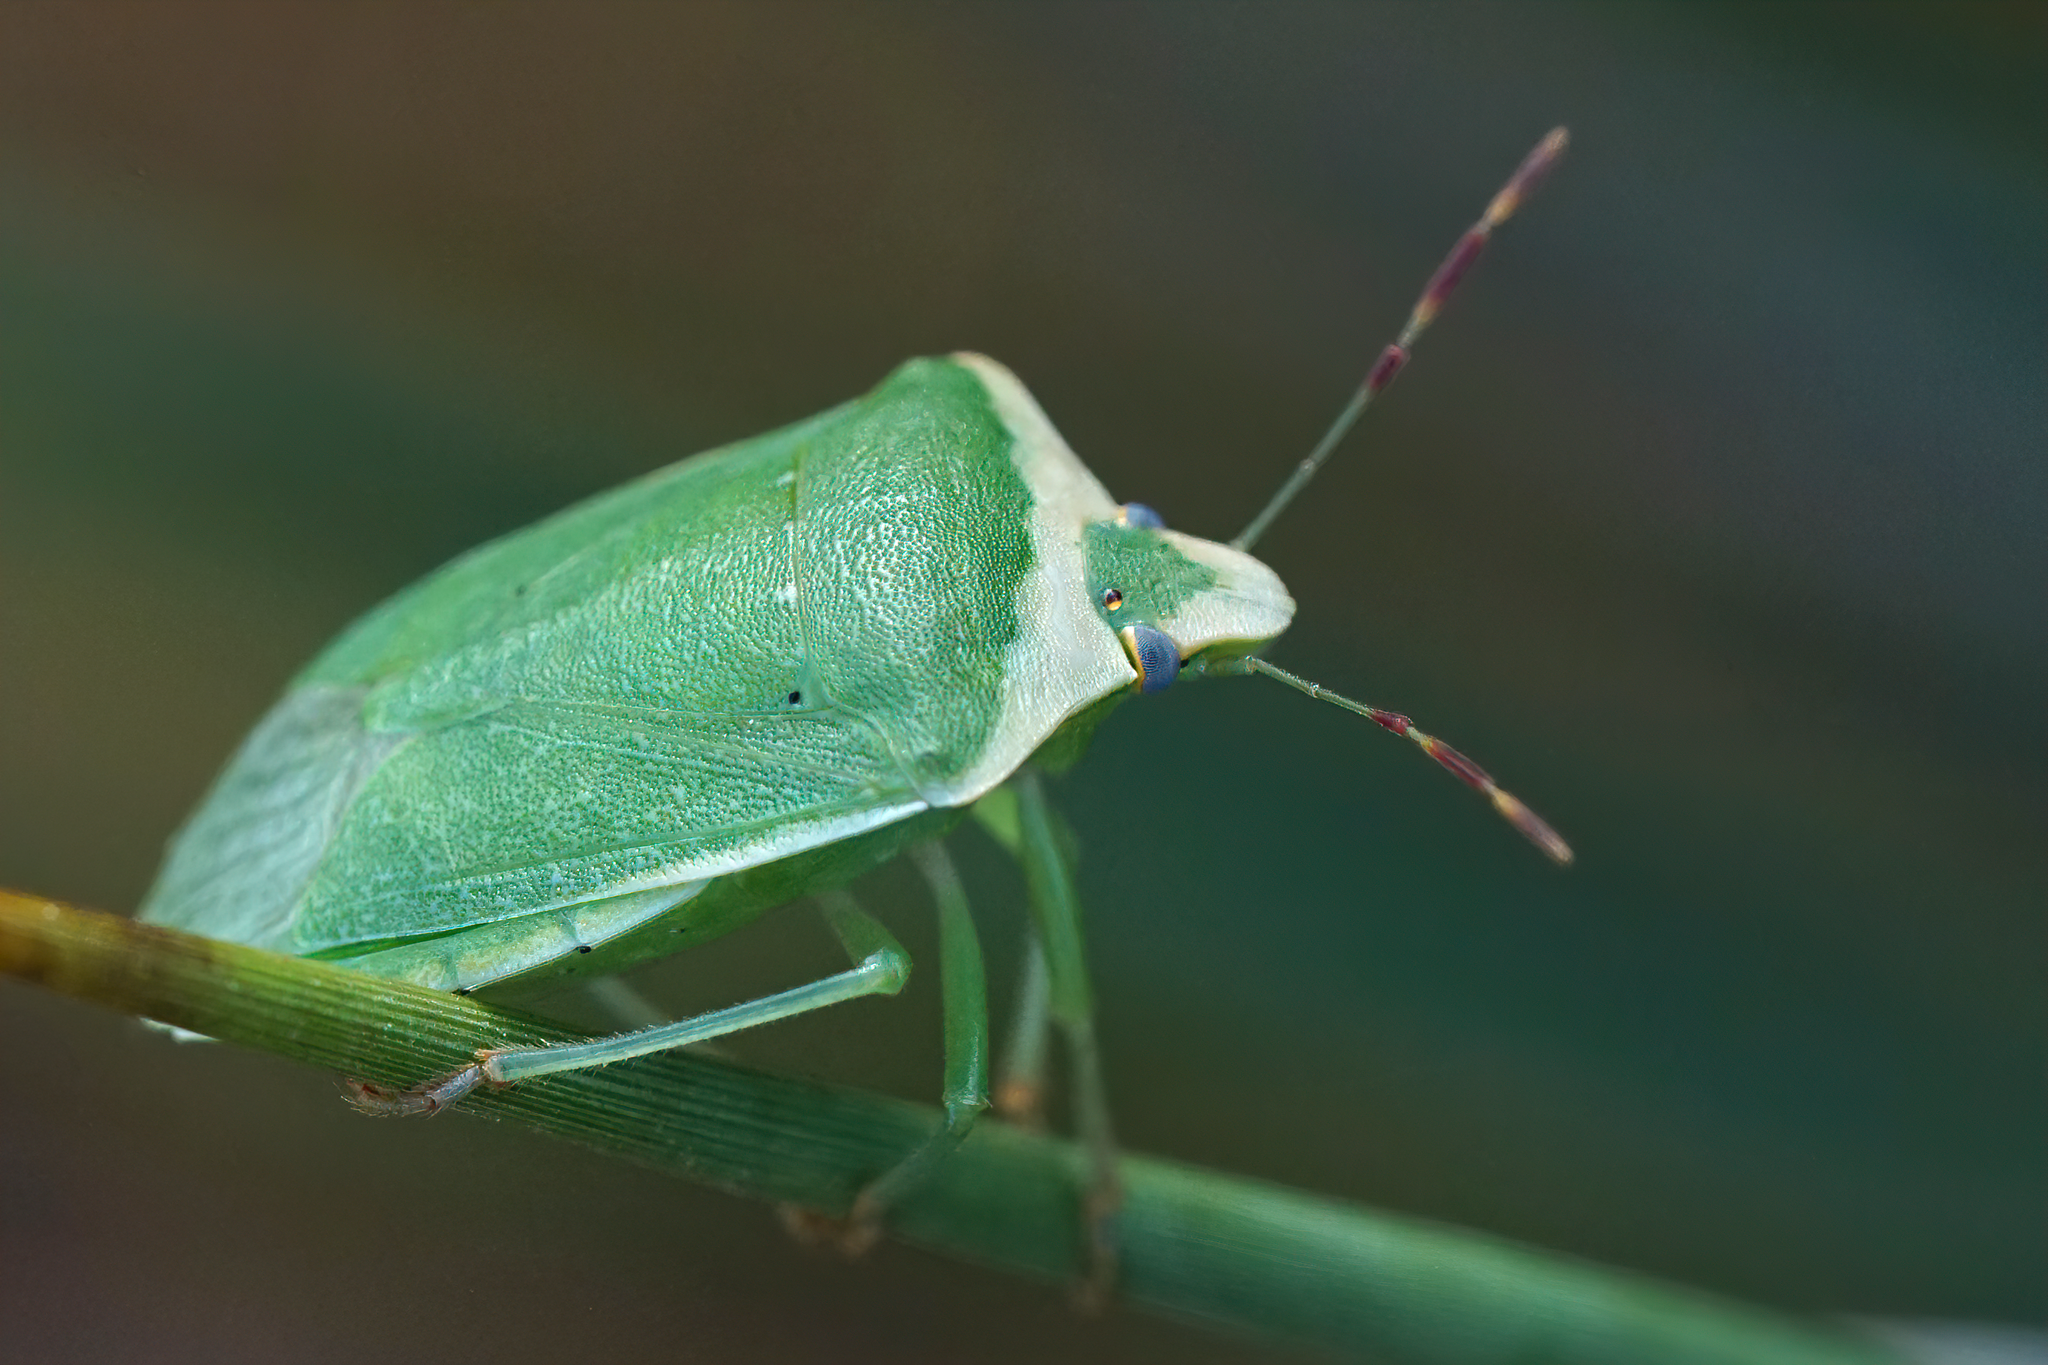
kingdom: Animalia
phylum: Arthropoda
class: Insecta
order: Hemiptera
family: Pentatomidae
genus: Nezara
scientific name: Nezara viridula
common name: Southern green stink bug
